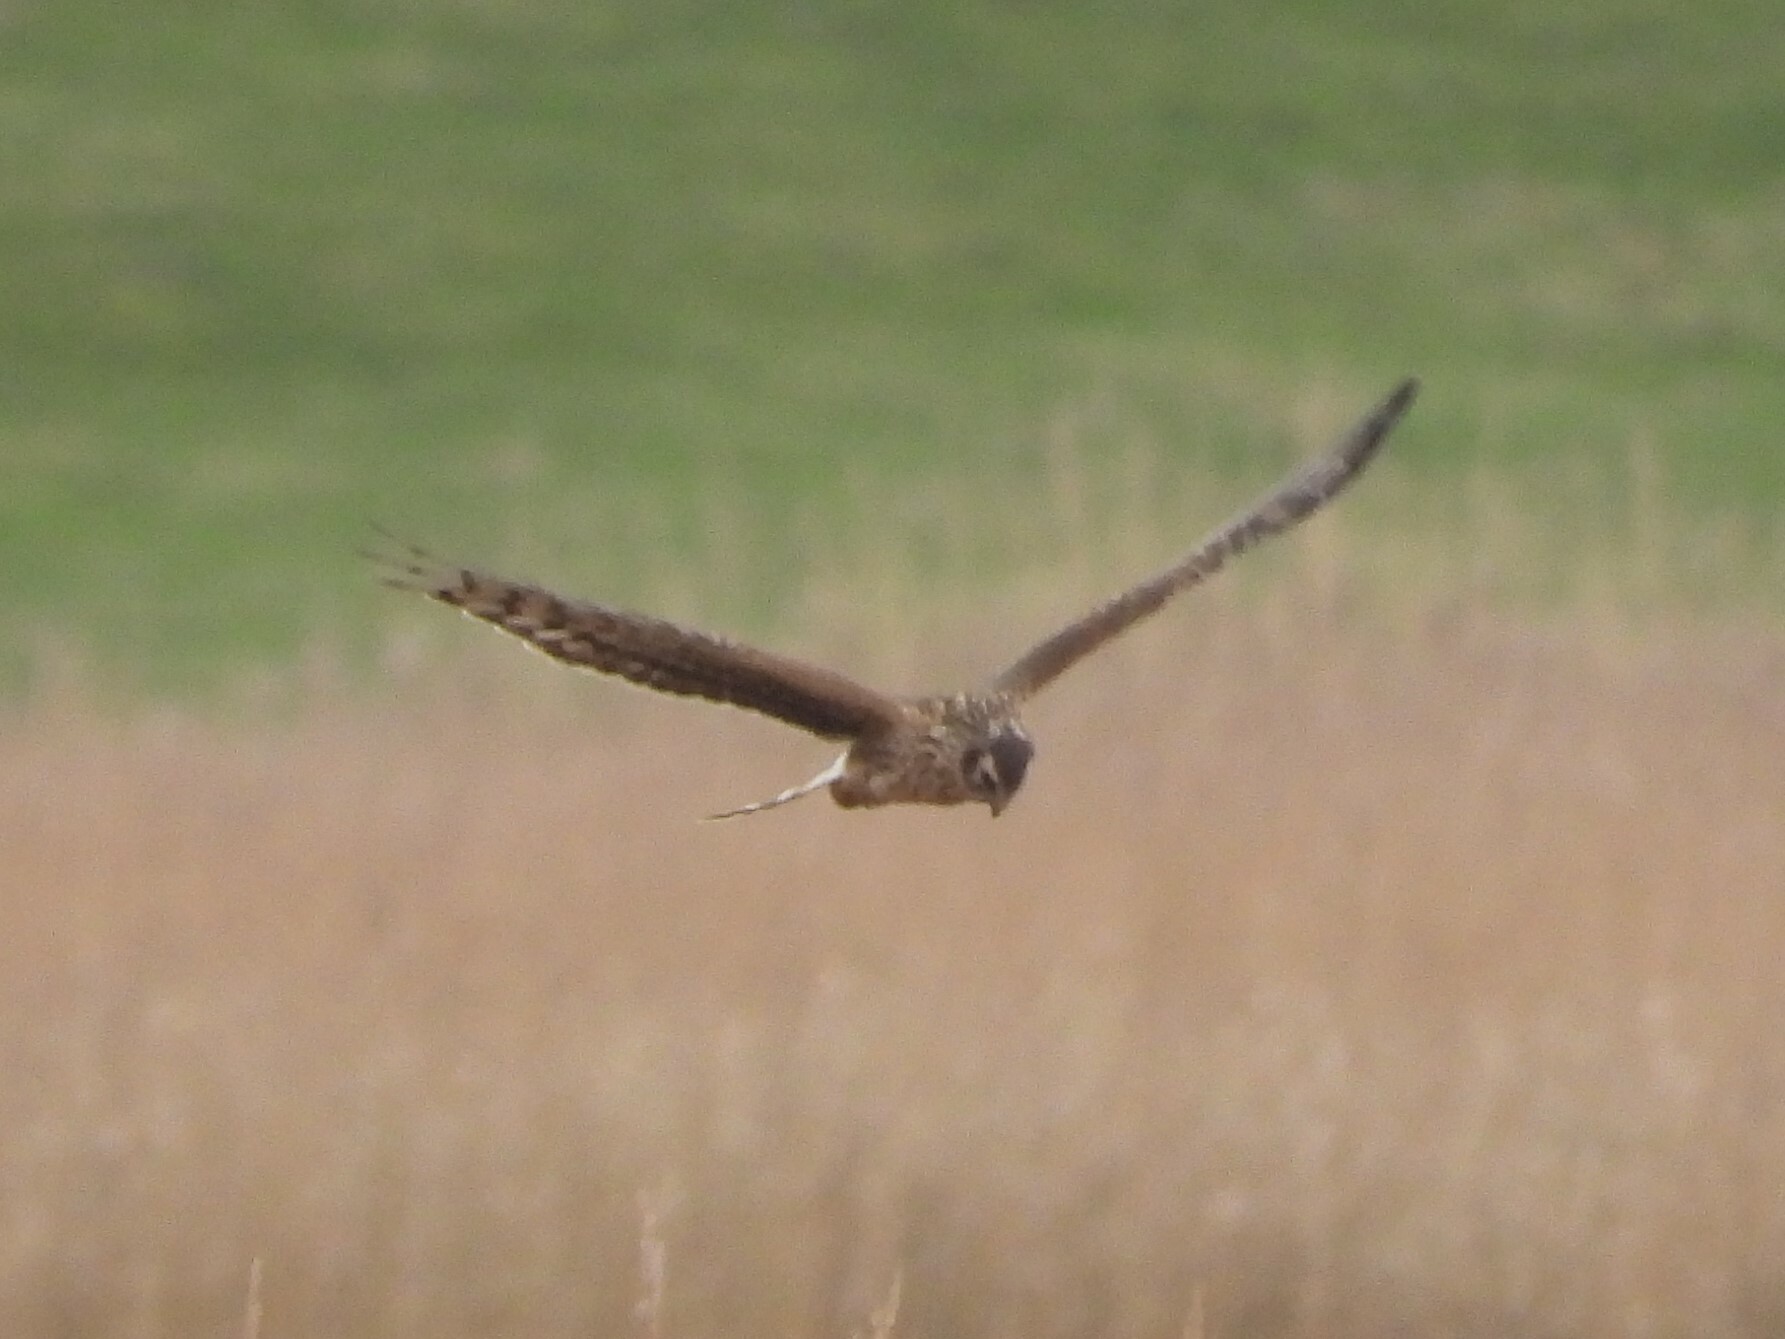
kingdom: Animalia
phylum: Chordata
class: Aves
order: Accipitriformes
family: Accipitridae
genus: Circus
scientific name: Circus cyaneus
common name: Hen harrier
